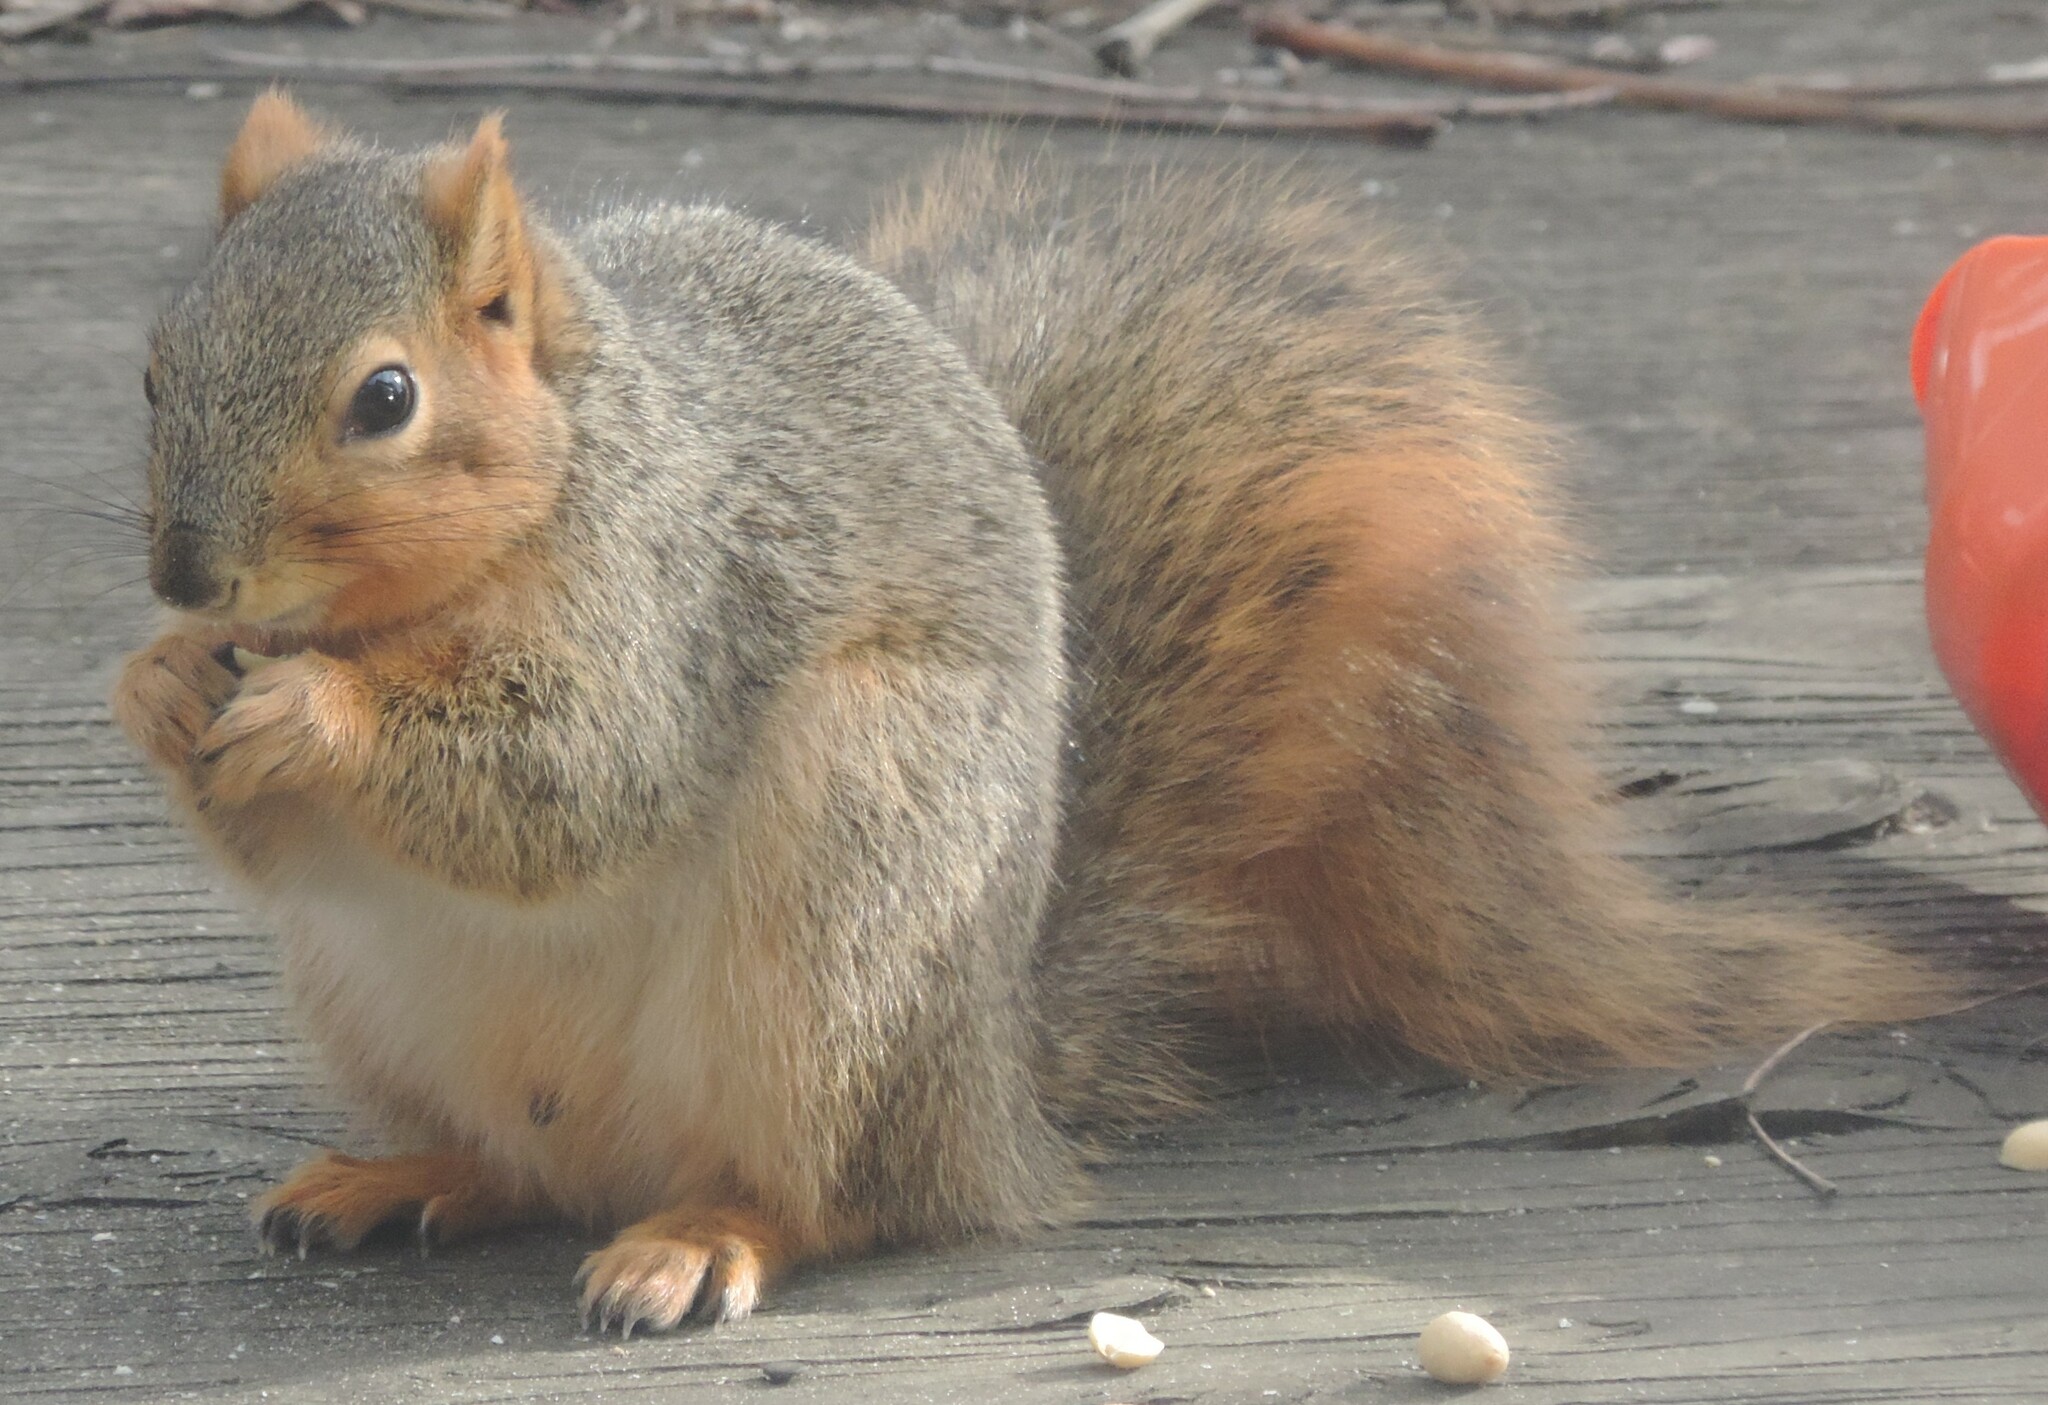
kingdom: Animalia
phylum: Chordata
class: Mammalia
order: Rodentia
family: Sciuridae
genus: Sciurus
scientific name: Sciurus niger
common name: Fox squirrel
